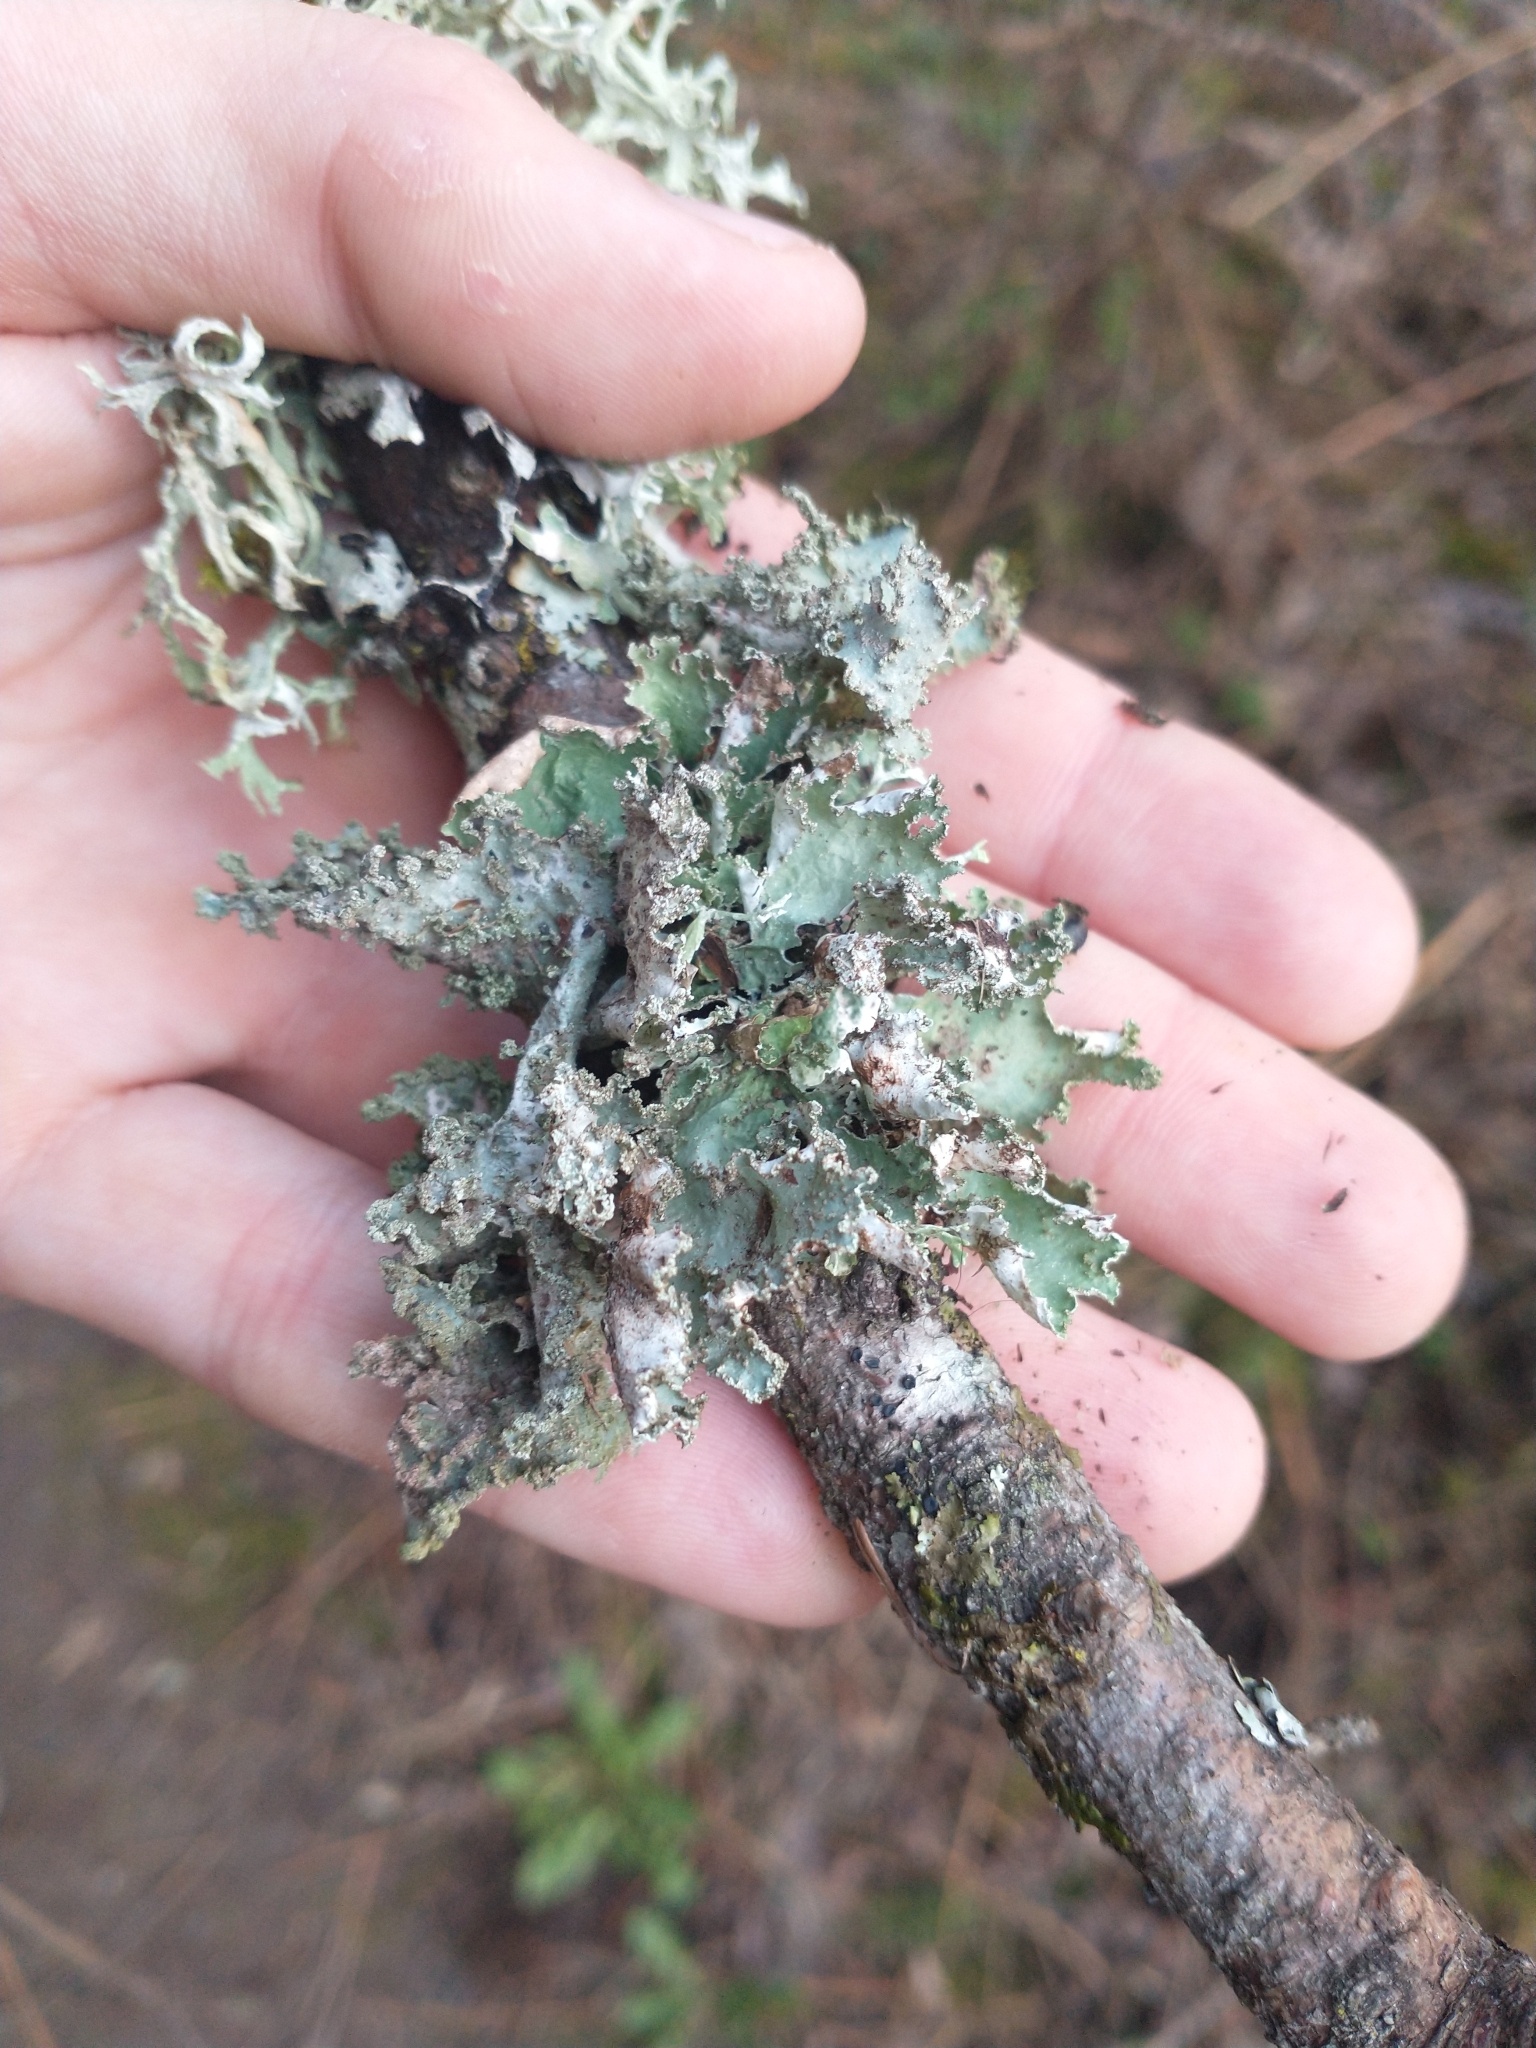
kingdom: Fungi
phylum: Ascomycota
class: Lecanoromycetes
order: Lecanorales
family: Parmeliaceae
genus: Platismatia
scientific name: Platismatia glauca
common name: Varied rag lichen
